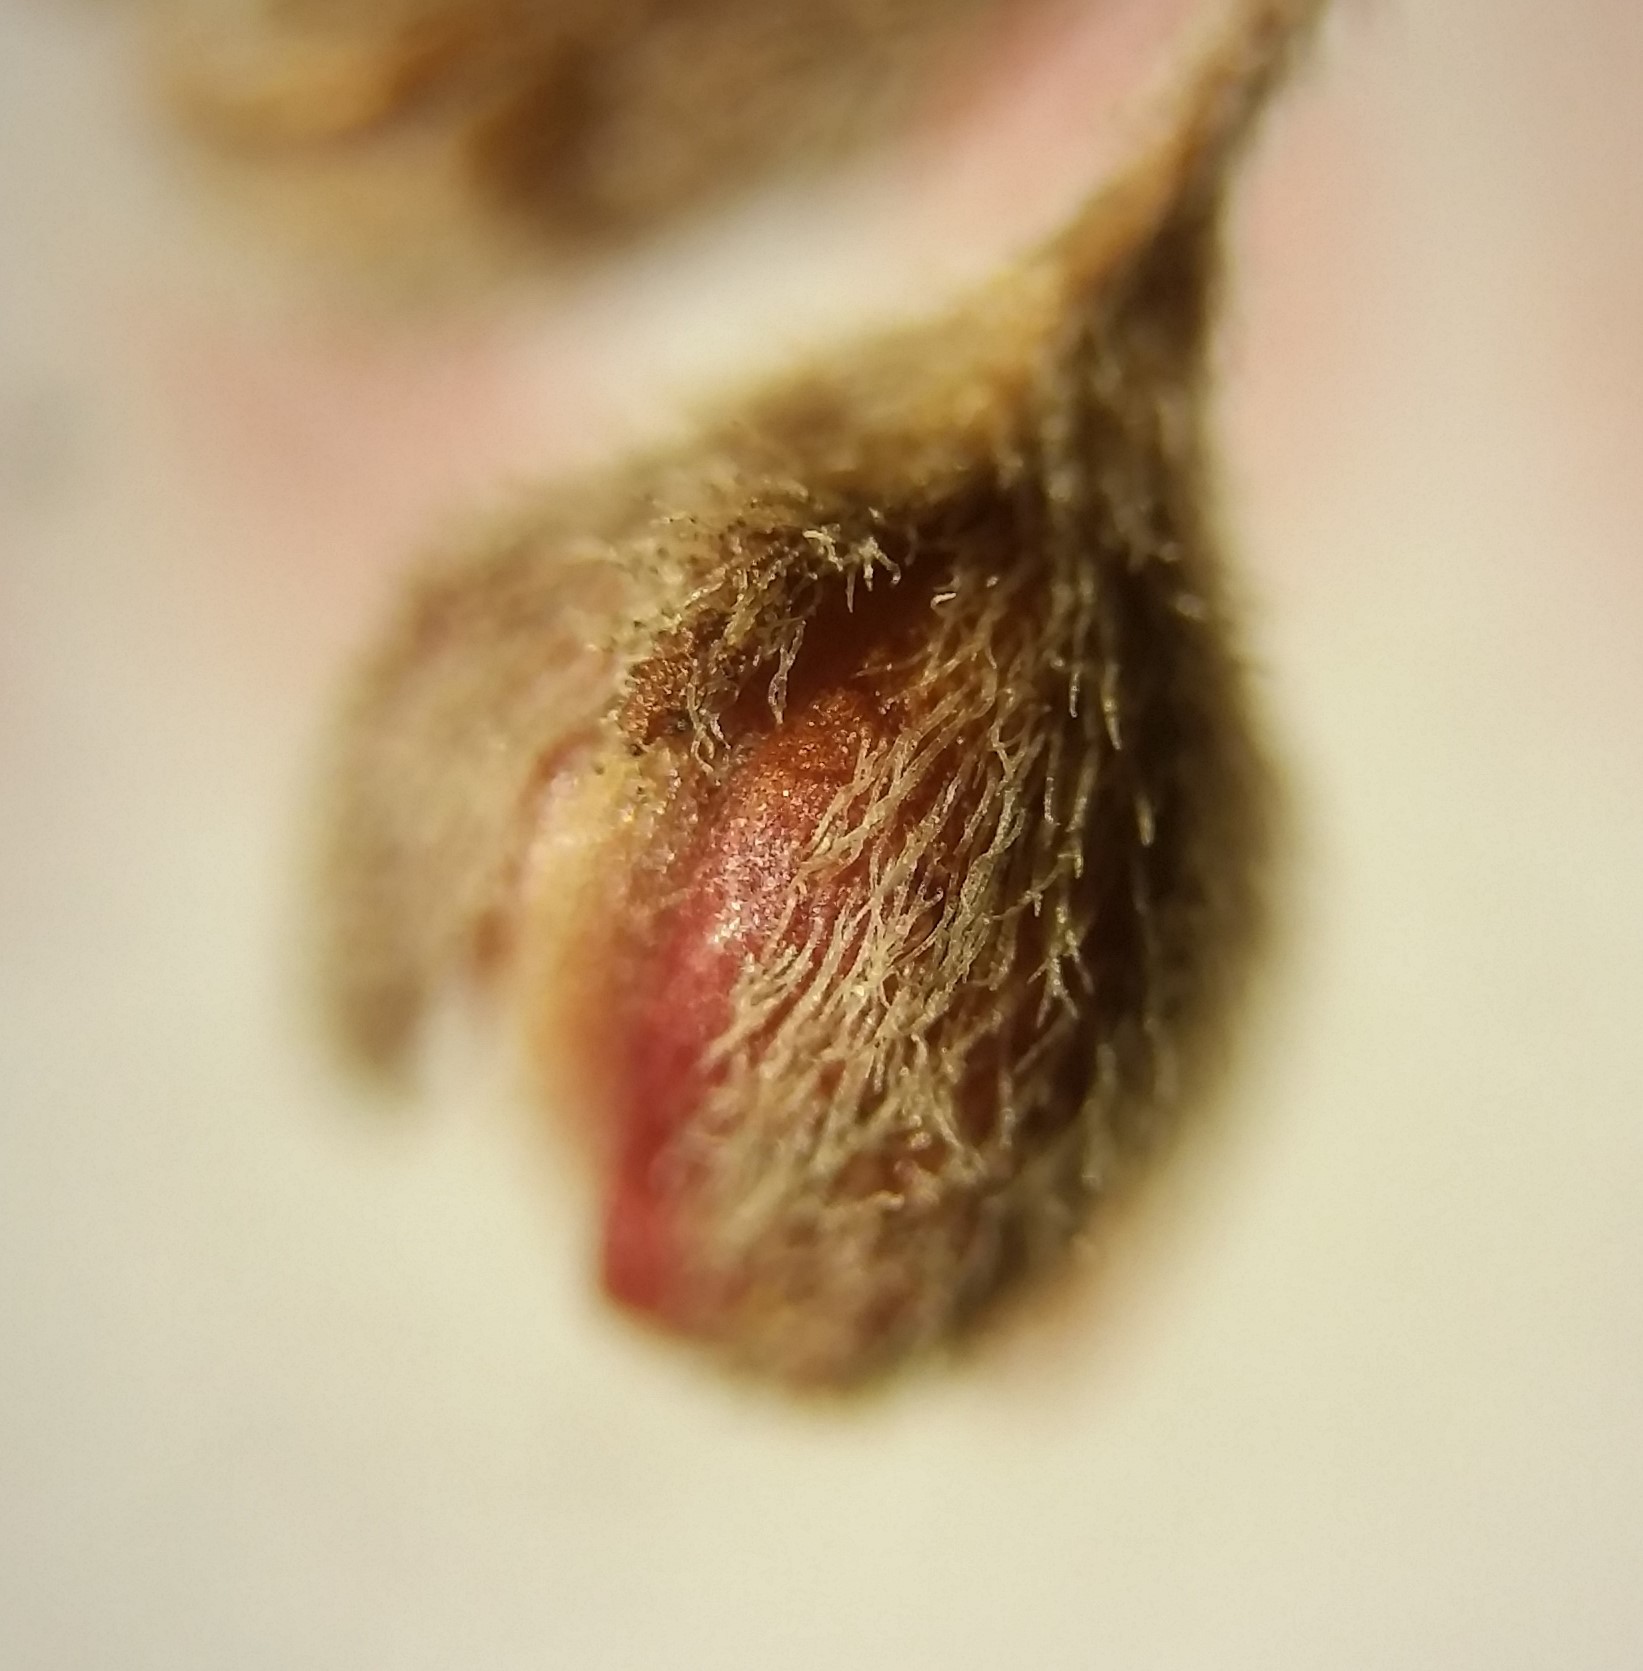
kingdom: Plantae
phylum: Tracheophyta
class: Magnoliopsida
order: Malvales
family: Cistaceae
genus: Lechea
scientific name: Lechea maritima
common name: Beach pinweed
